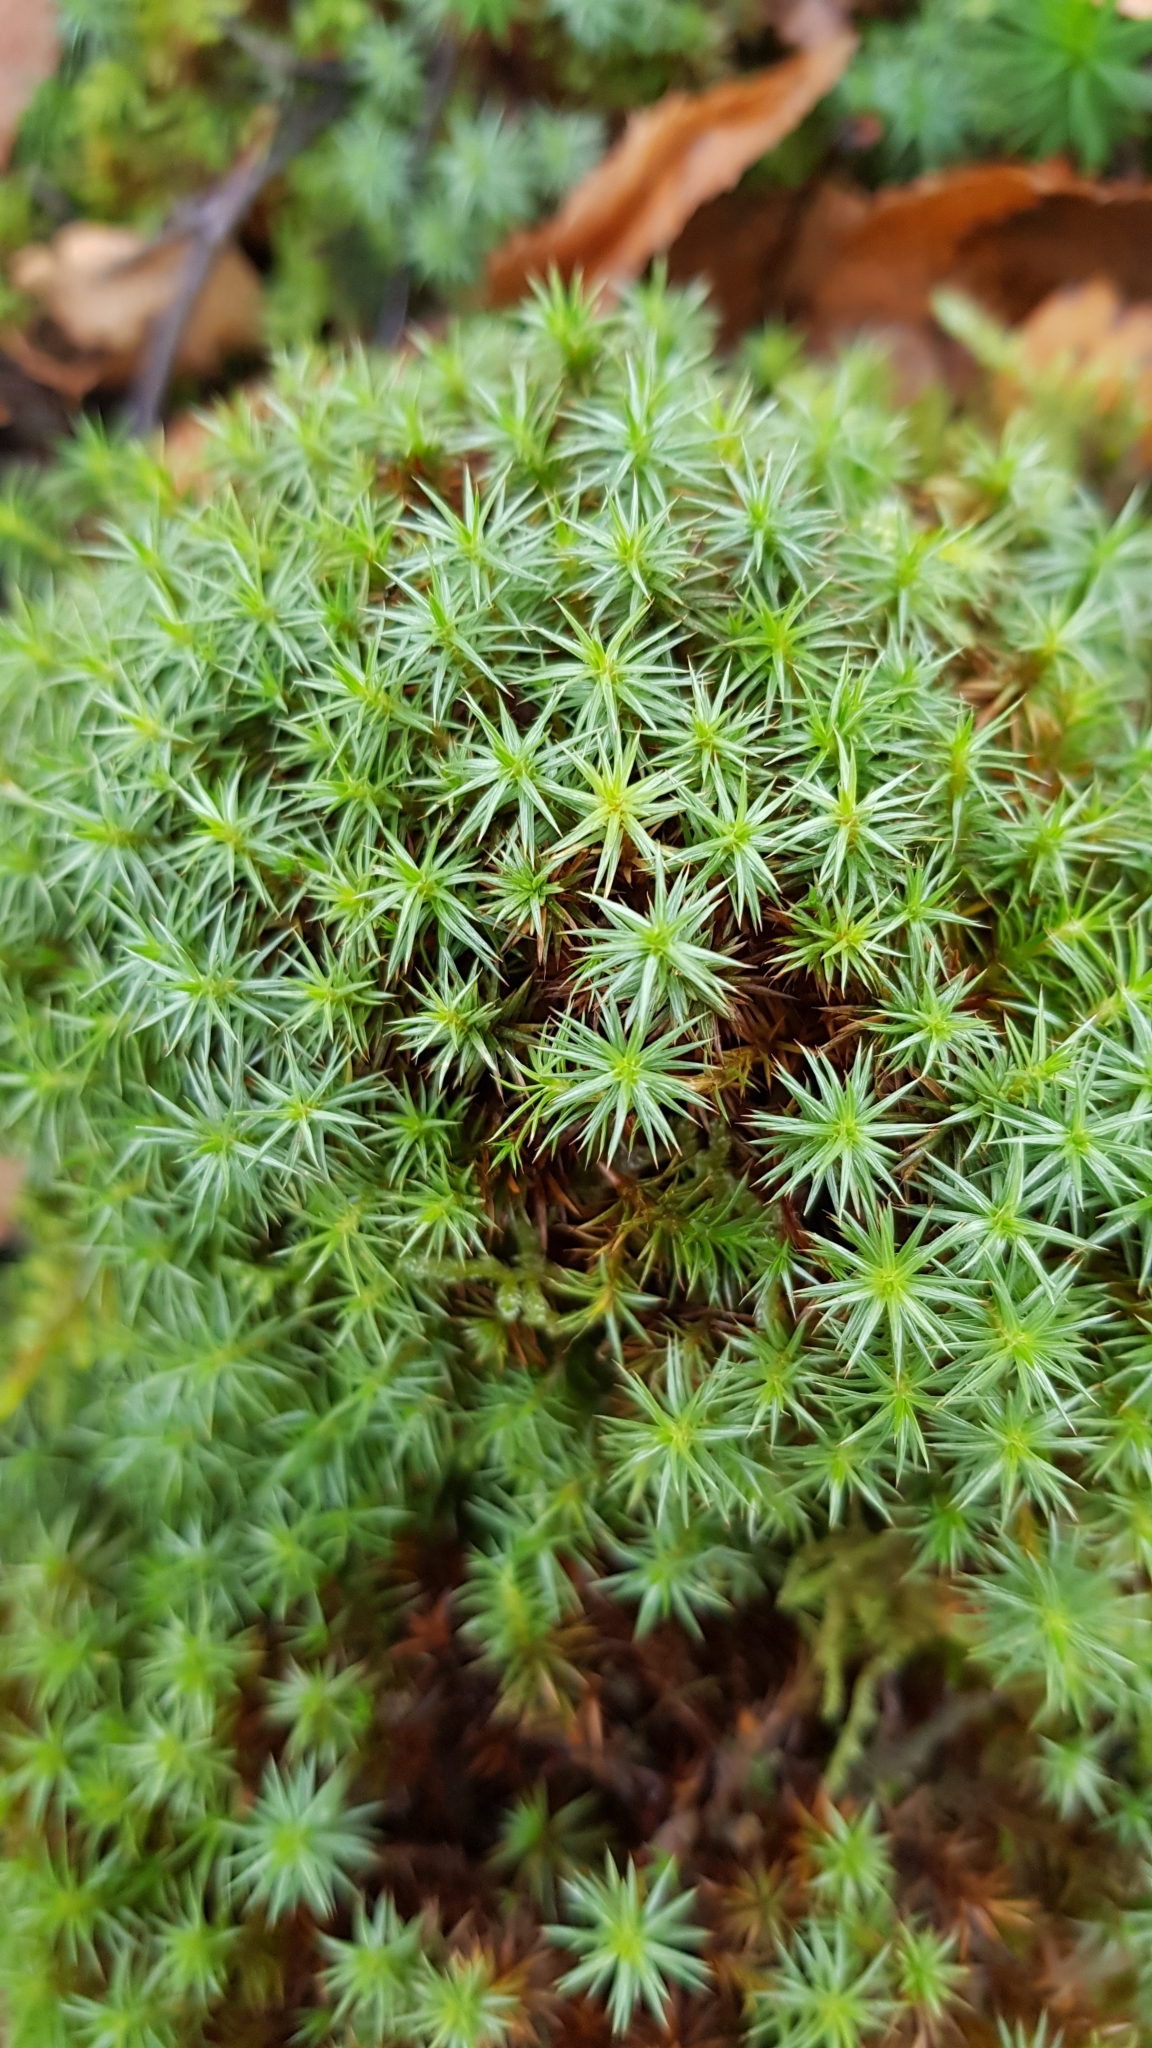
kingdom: Plantae
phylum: Bryophyta
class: Polytrichopsida
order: Polytrichales
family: Polytrichaceae
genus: Polytrichum
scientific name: Polytrichum juniperinum
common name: Juniper haircap moss
